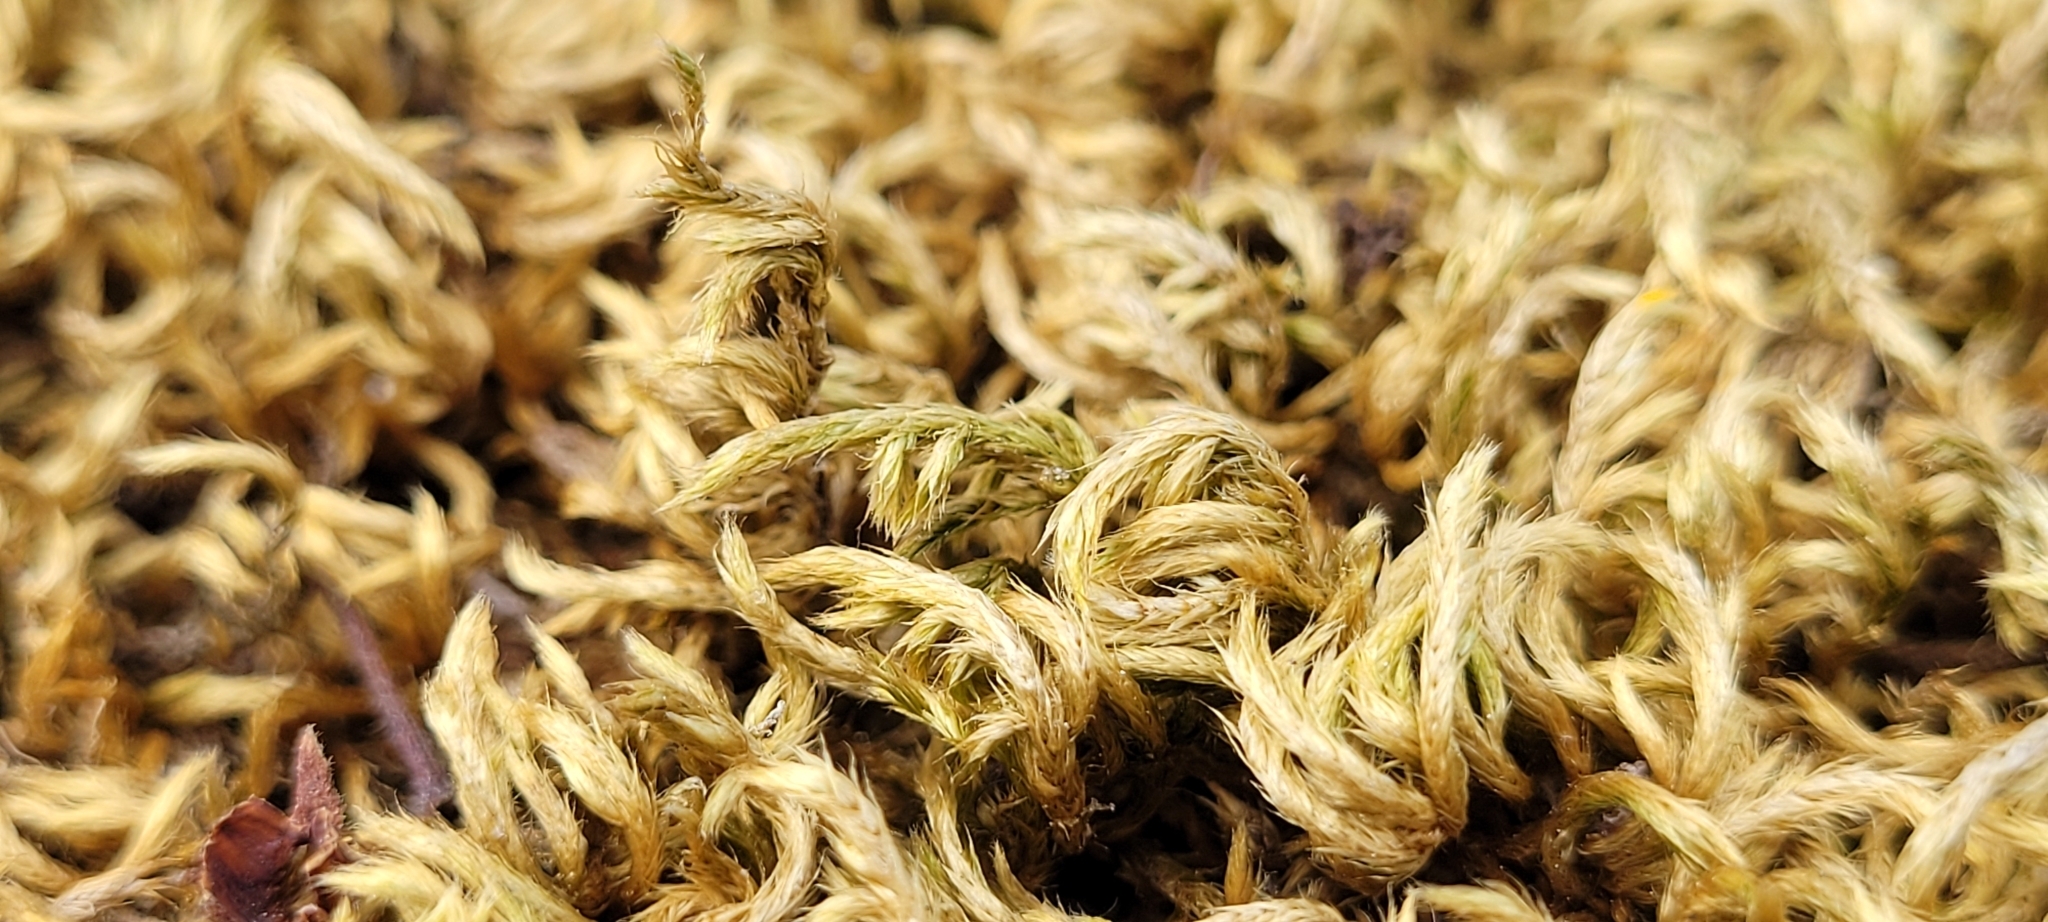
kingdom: Plantae
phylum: Bryophyta
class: Bryopsida
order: Hypnales
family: Brachytheciaceae
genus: Homalothecium
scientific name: Homalothecium sericeum
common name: Silky wall feather-moss
